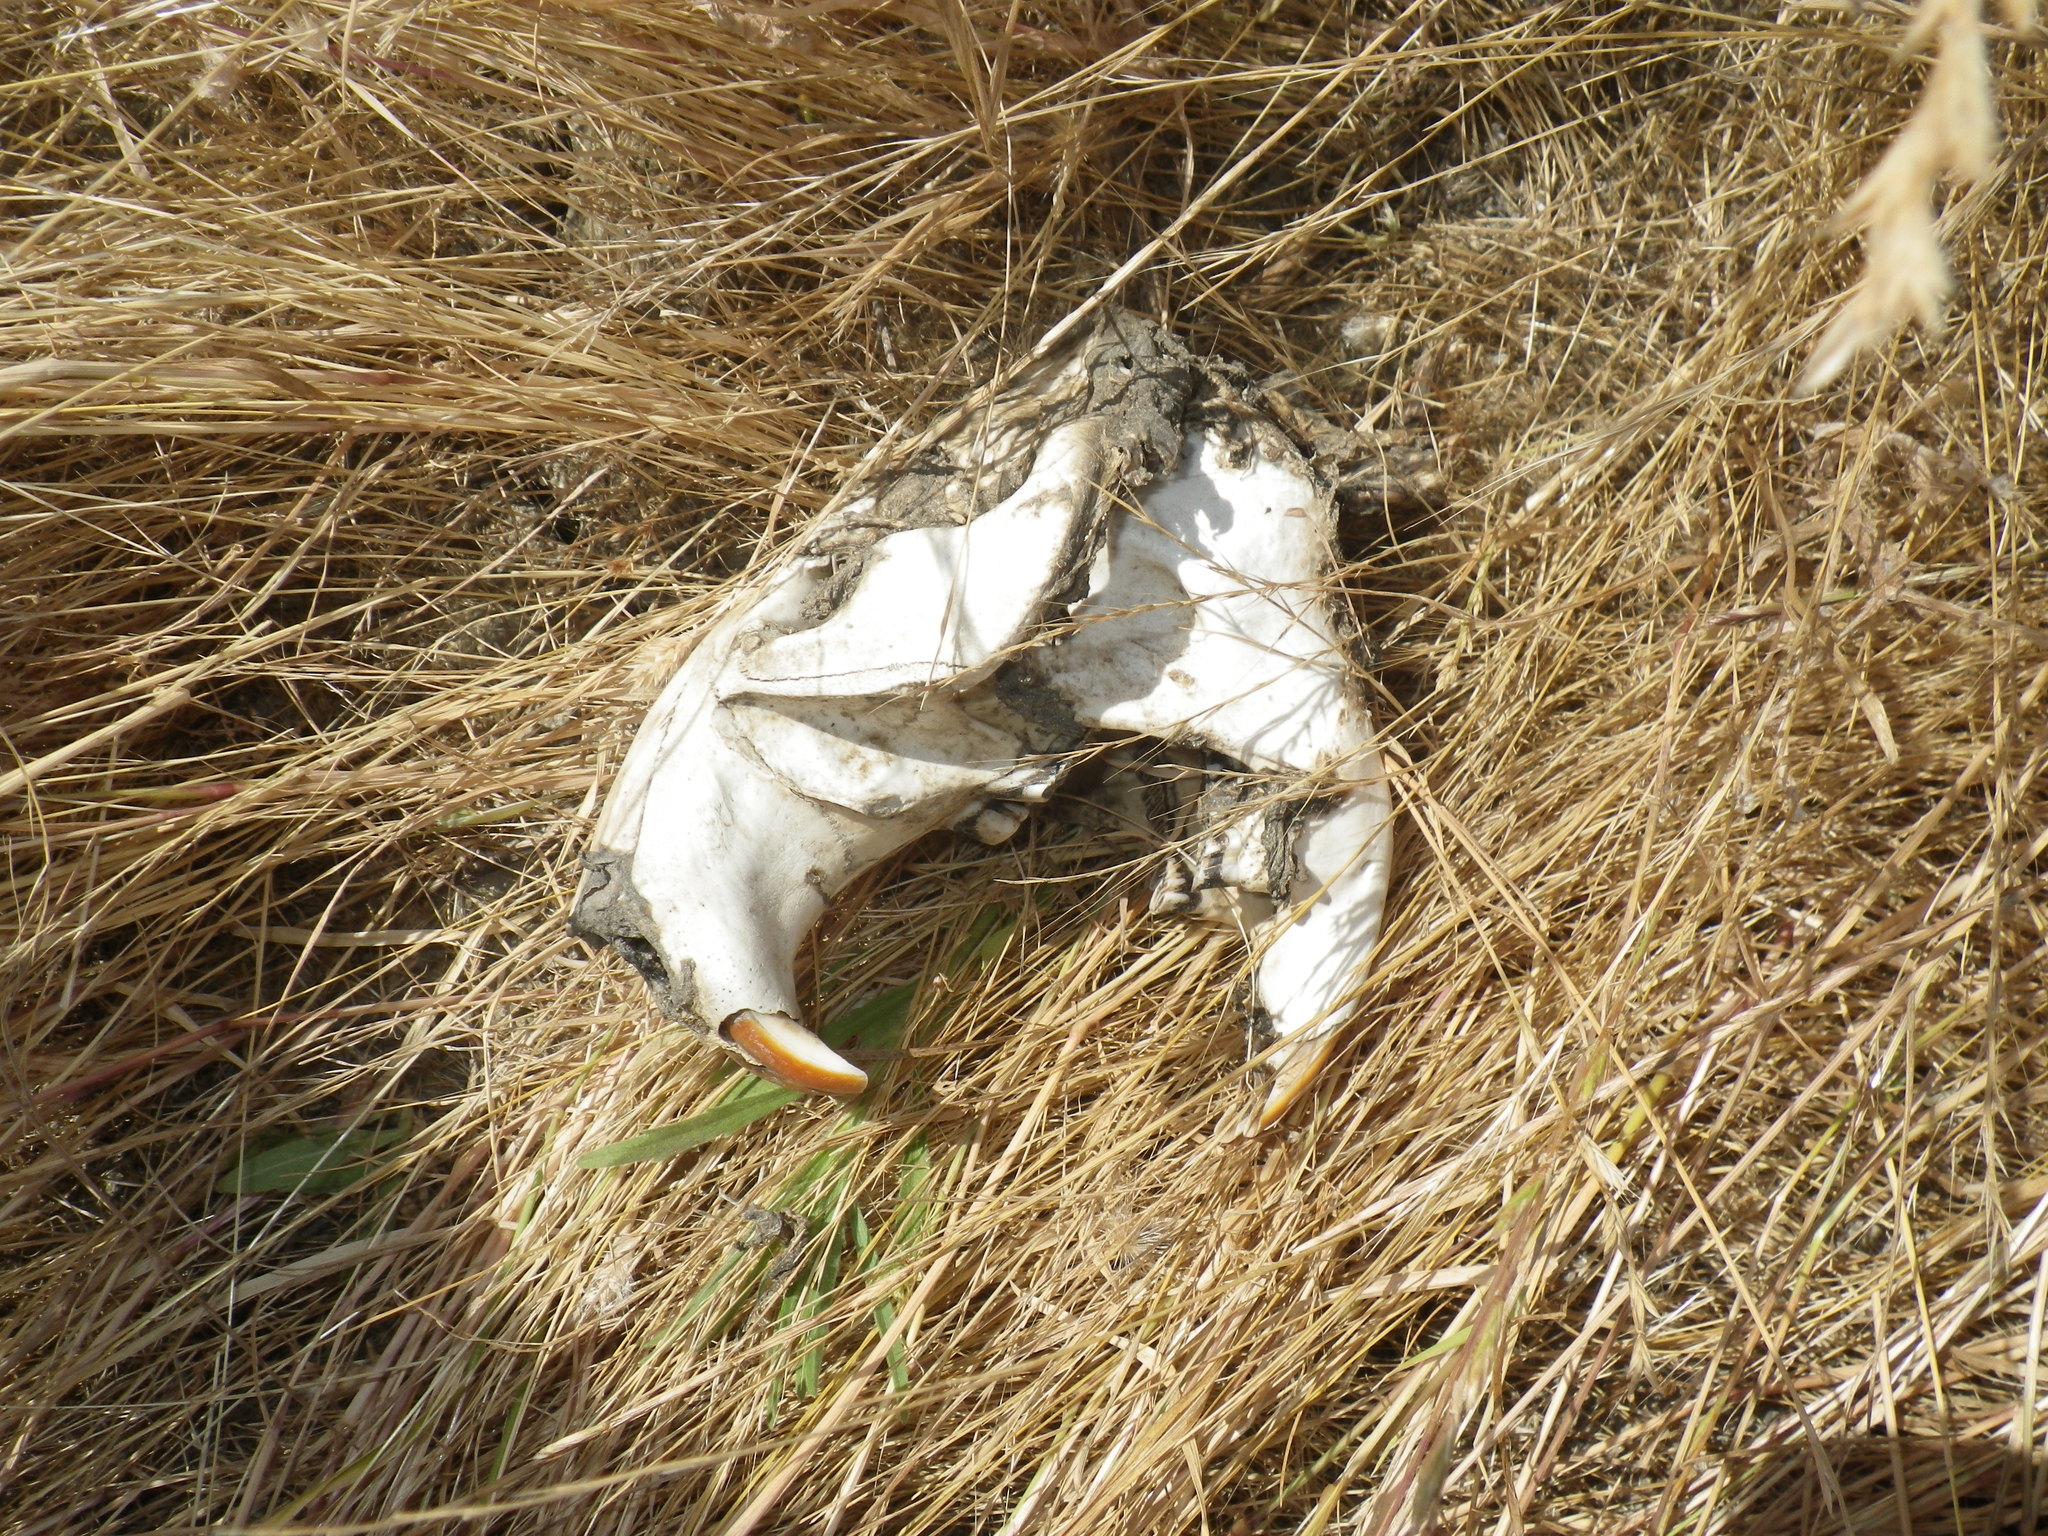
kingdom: Animalia
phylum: Chordata
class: Mammalia
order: Rodentia
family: Castoridae
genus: Castor
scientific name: Castor canadensis
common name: American beaver
